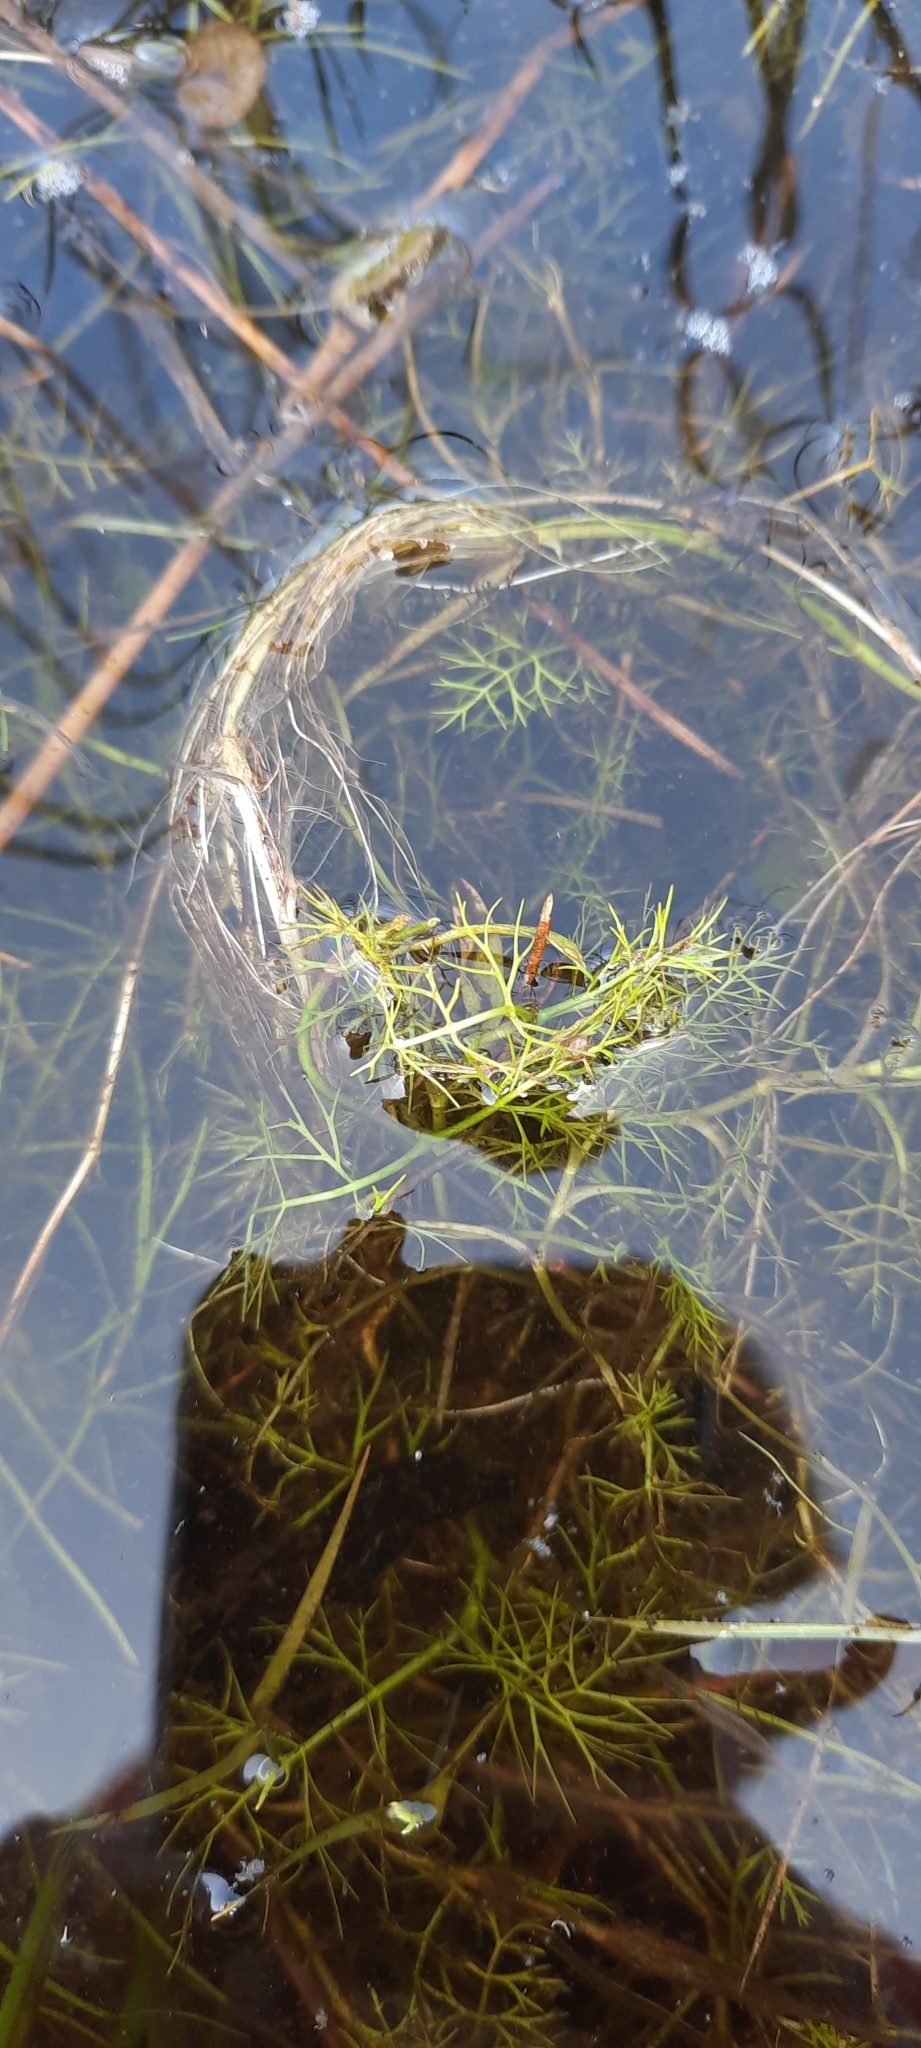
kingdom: Plantae
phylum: Tracheophyta
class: Magnoliopsida
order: Apiales
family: Apiaceae
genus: Helosciadium
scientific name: Helosciadium inundatum
